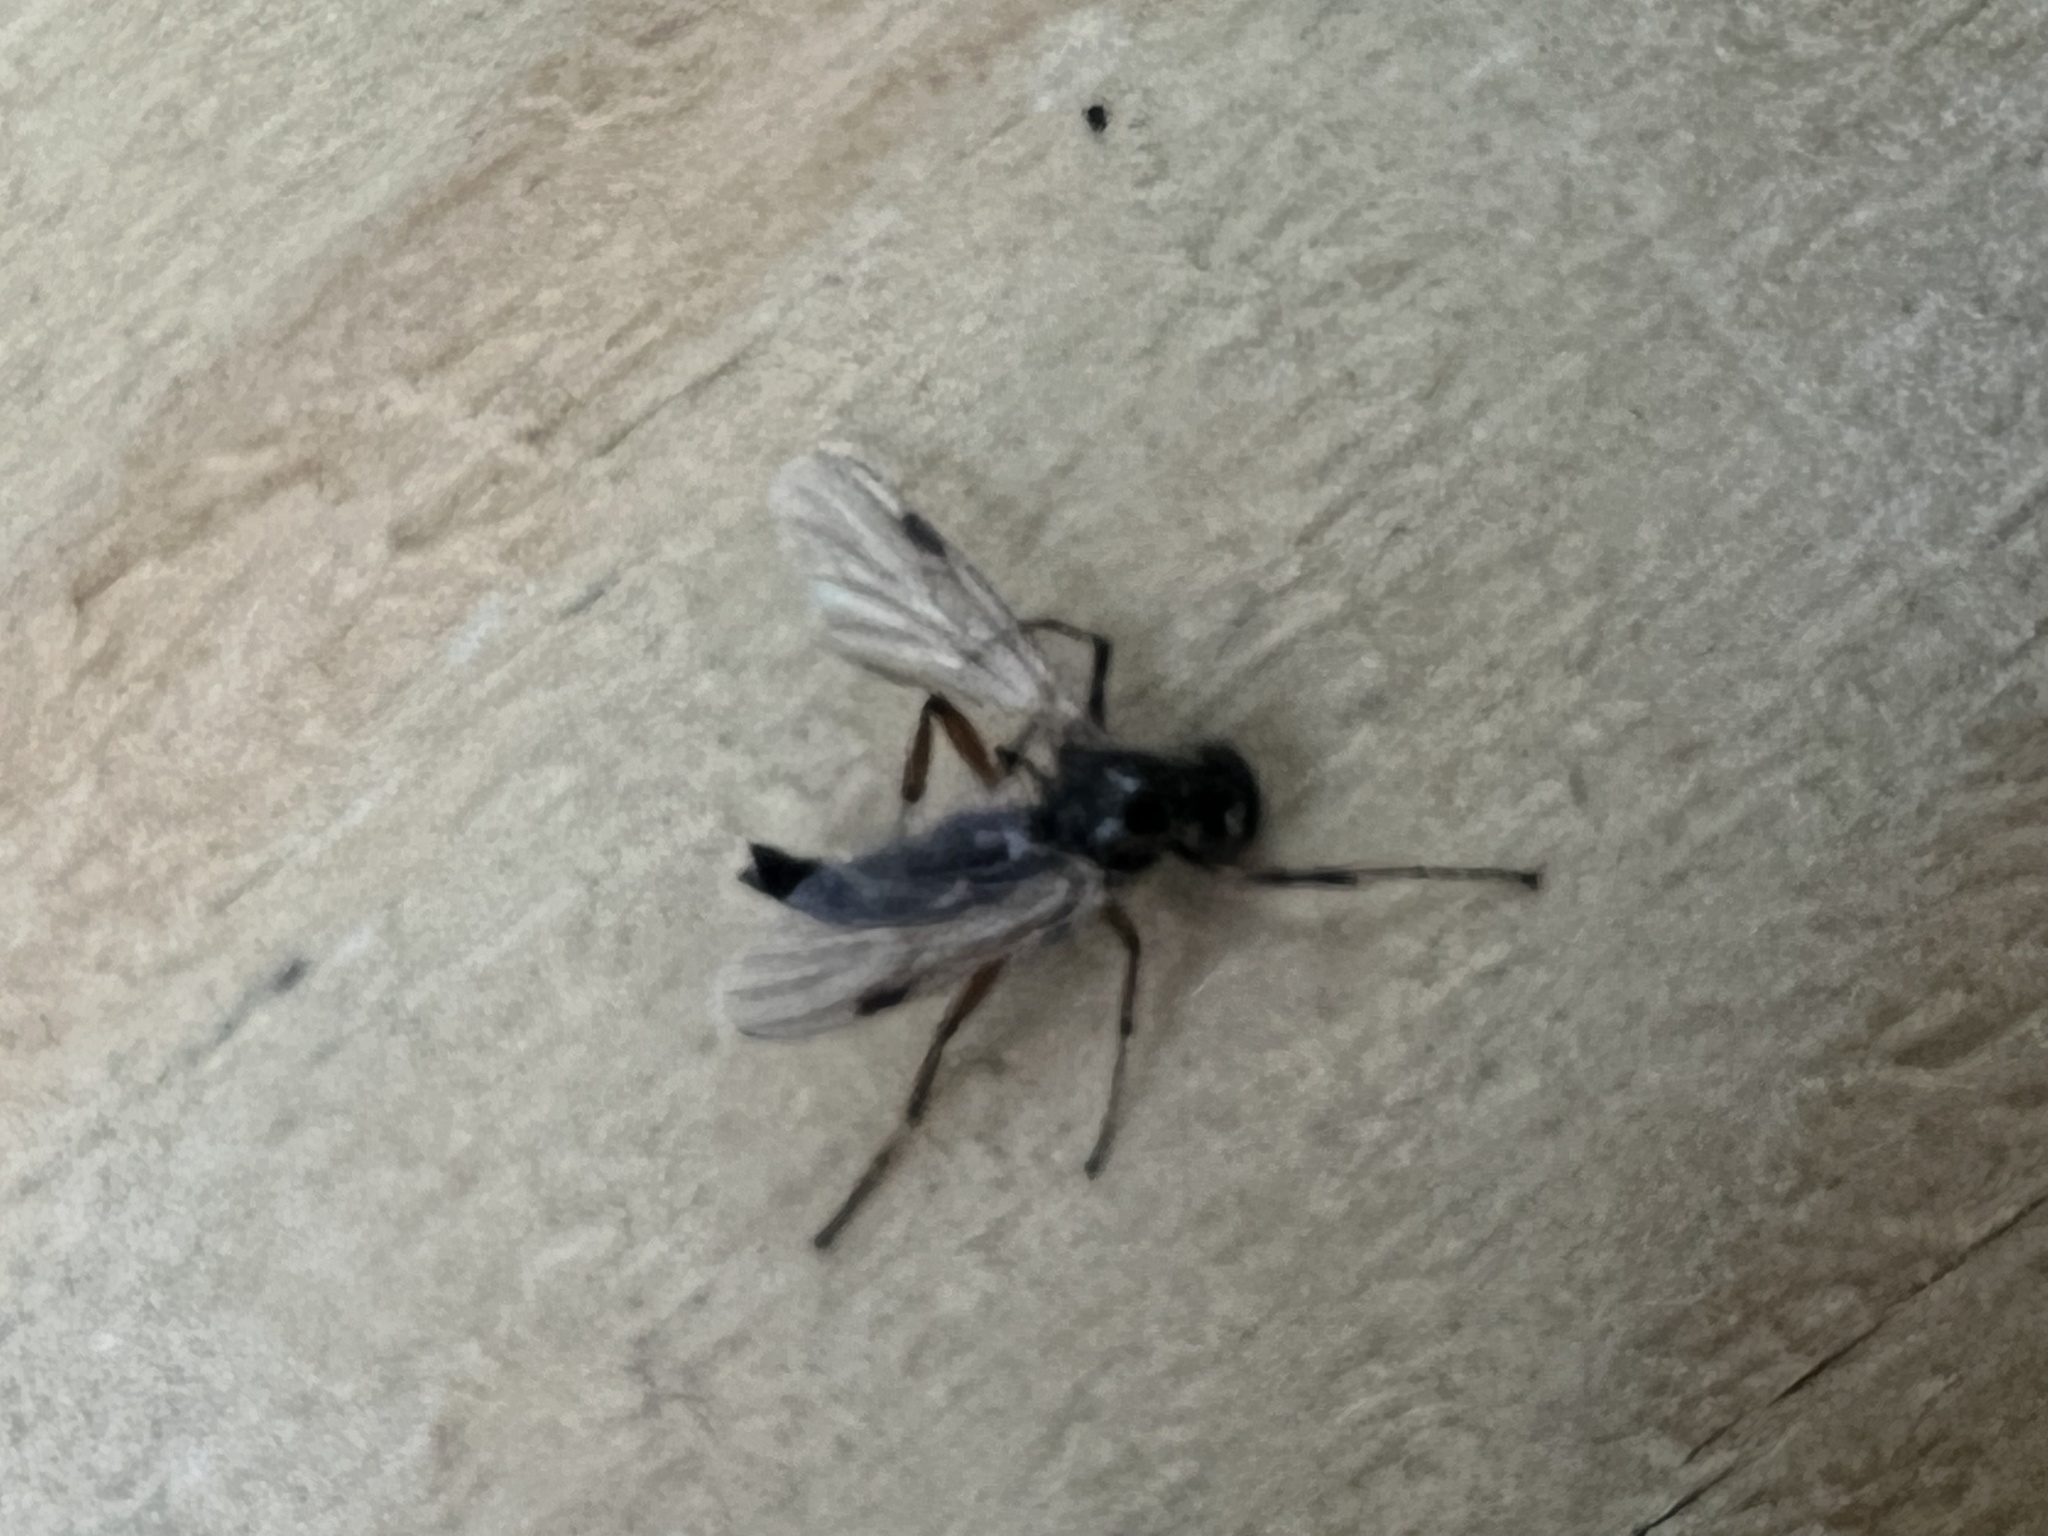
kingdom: Animalia
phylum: Arthropoda
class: Insecta
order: Diptera
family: Bibionidae
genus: Bibio
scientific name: Bibio
